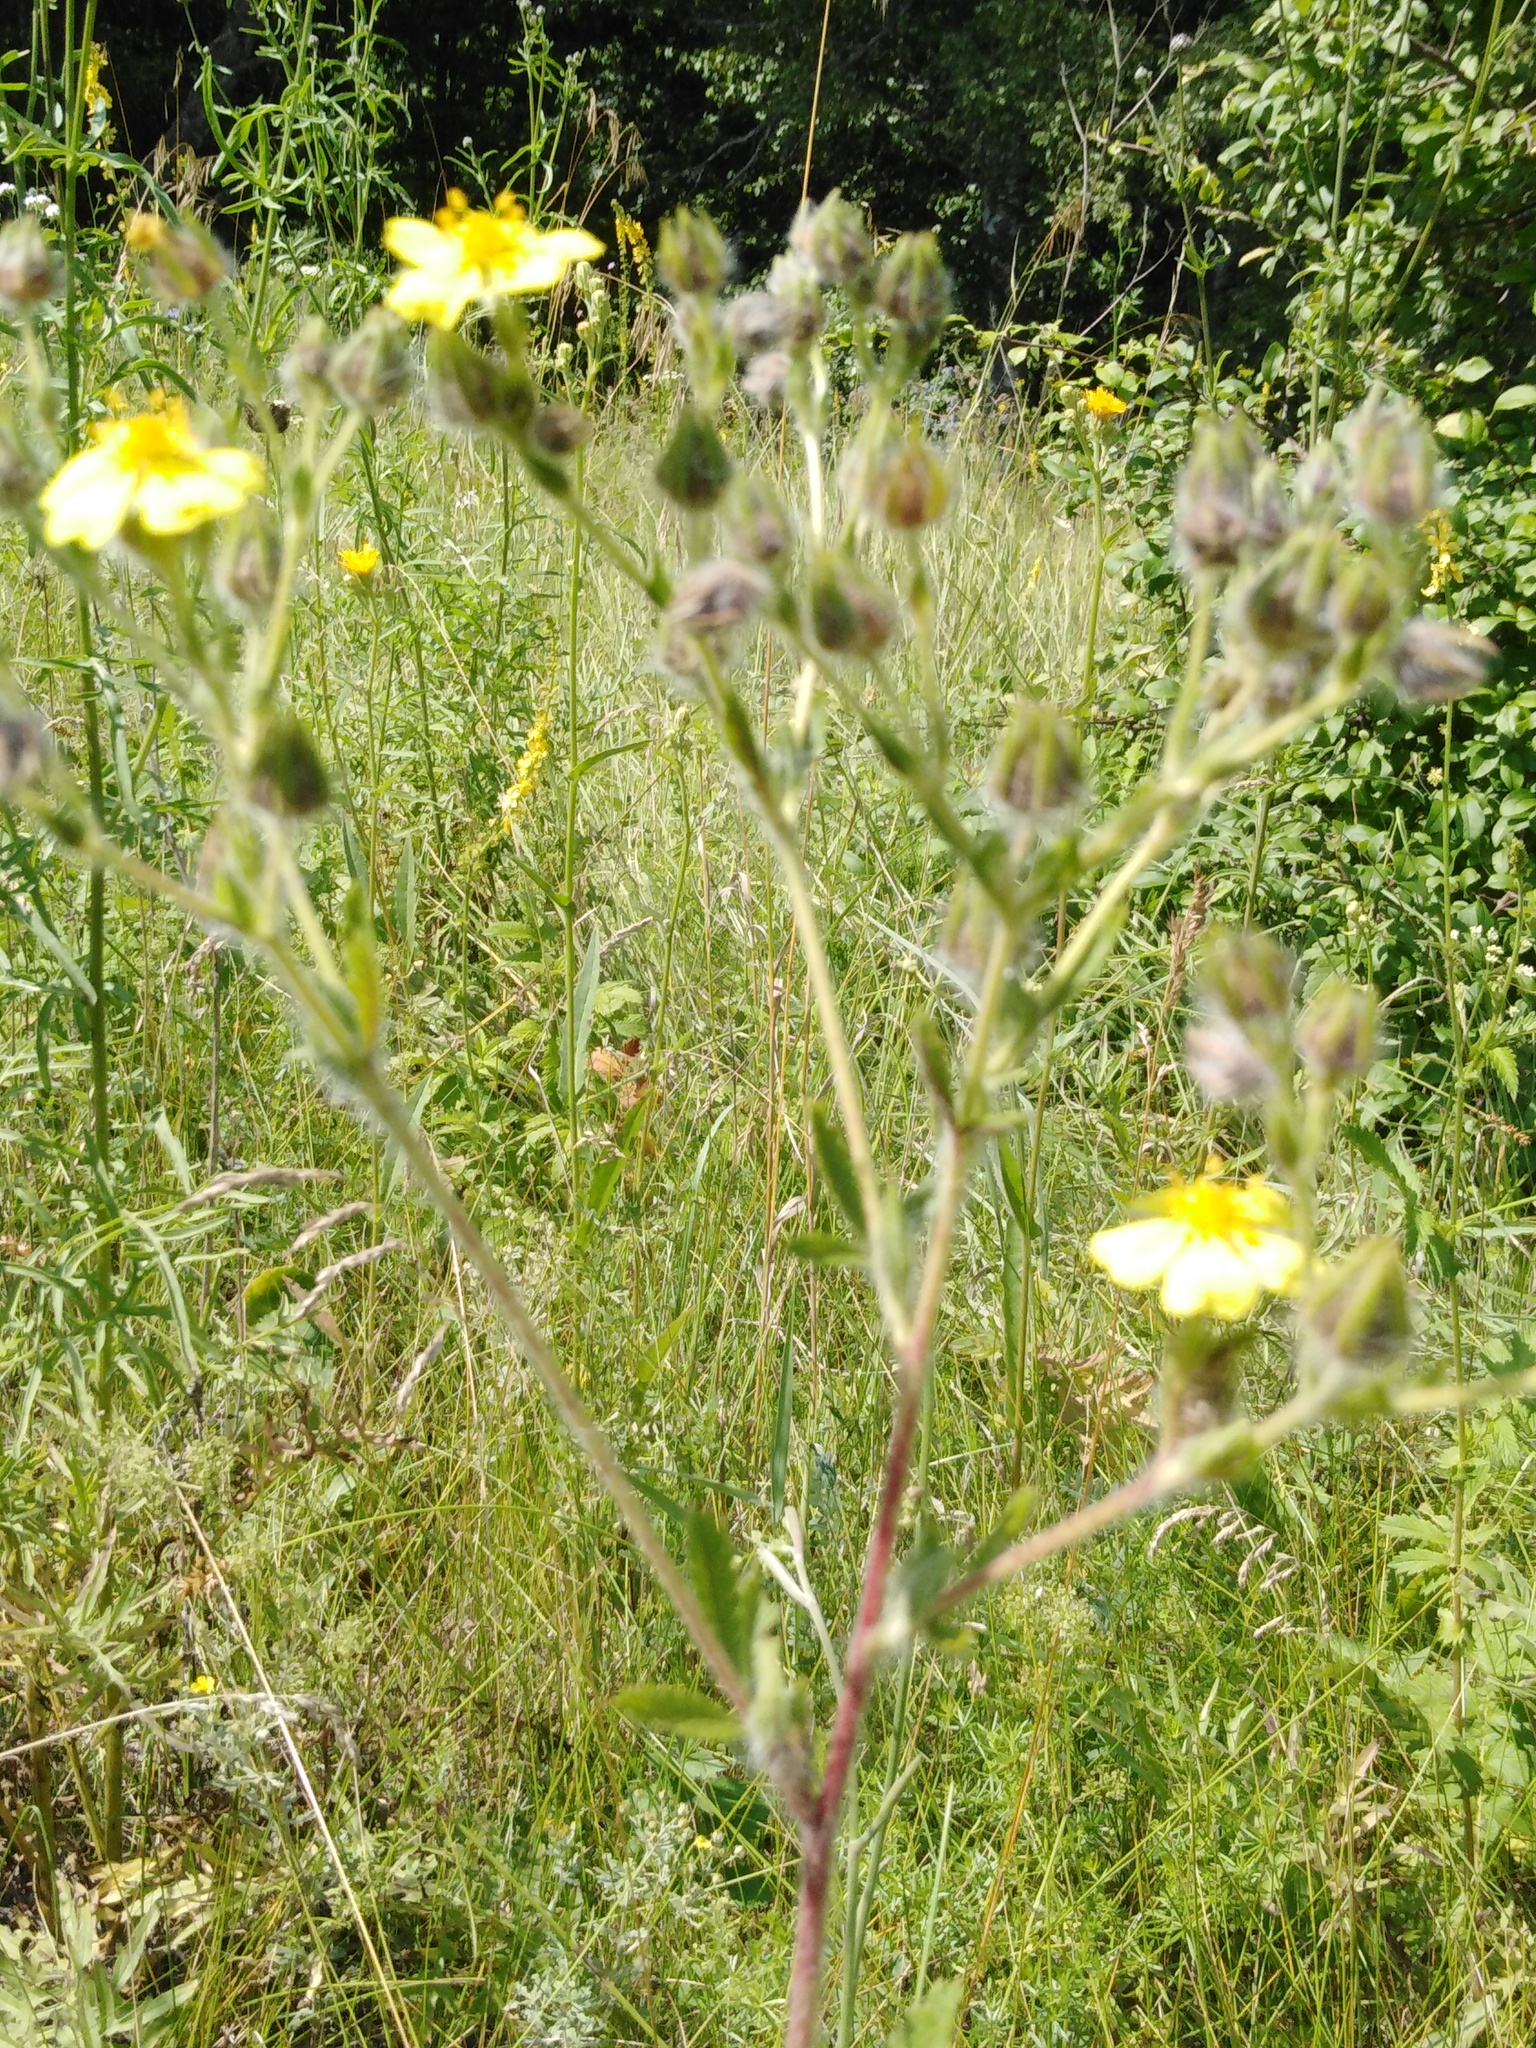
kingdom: Plantae
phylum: Tracheophyta
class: Magnoliopsida
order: Rosales
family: Rosaceae
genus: Potentilla
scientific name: Potentilla recta
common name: Sulphur cinquefoil
